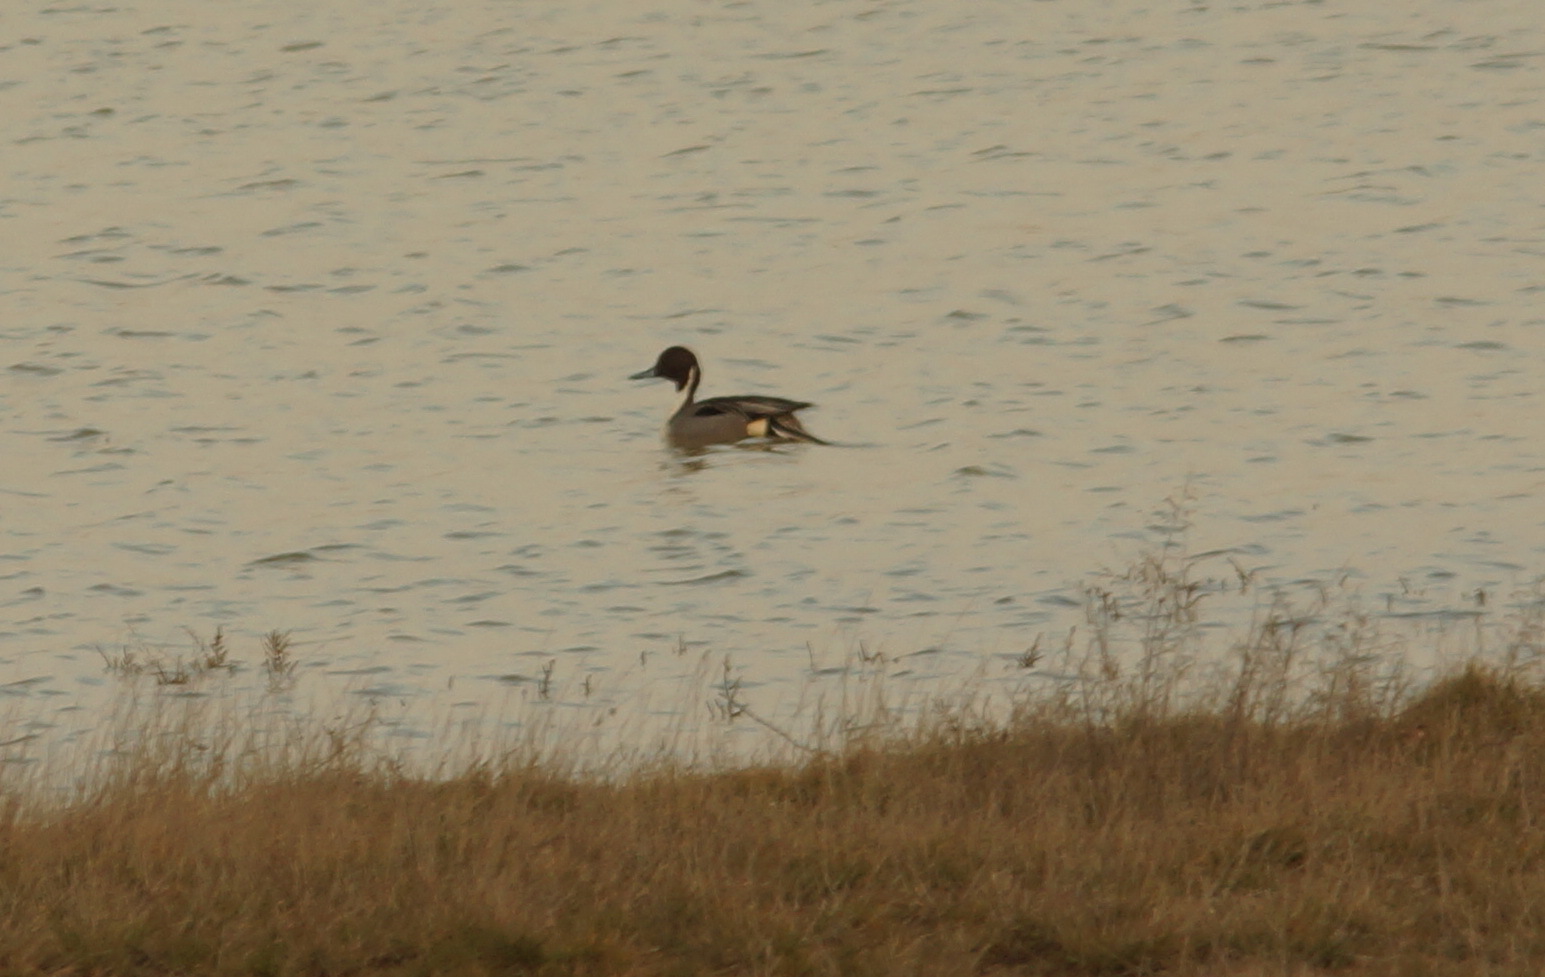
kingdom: Animalia
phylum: Chordata
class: Aves
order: Anseriformes
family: Anatidae
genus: Anas
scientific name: Anas acuta
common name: Northern pintail
